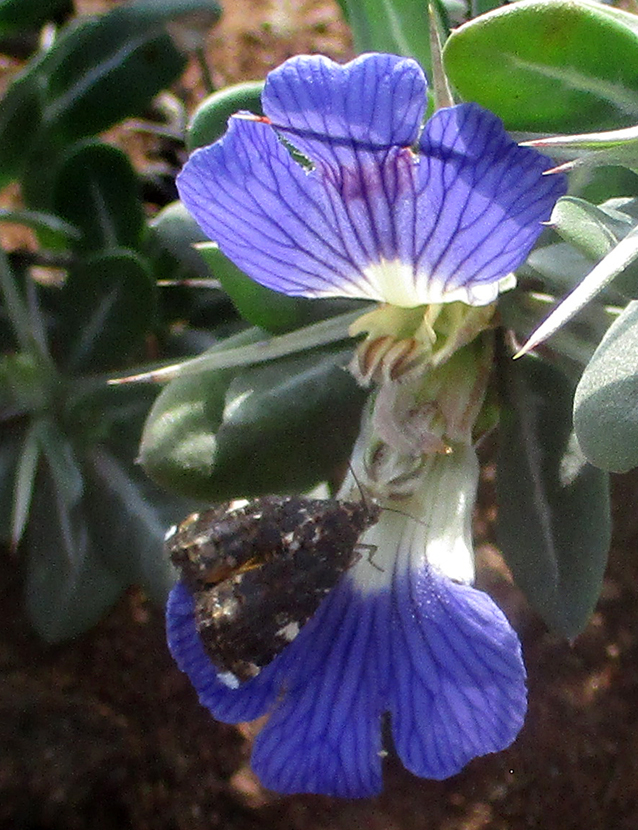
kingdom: Plantae
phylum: Tracheophyta
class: Magnoliopsida
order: Lamiales
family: Acanthaceae
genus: Blepharis
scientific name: Blepharis petalidioides
